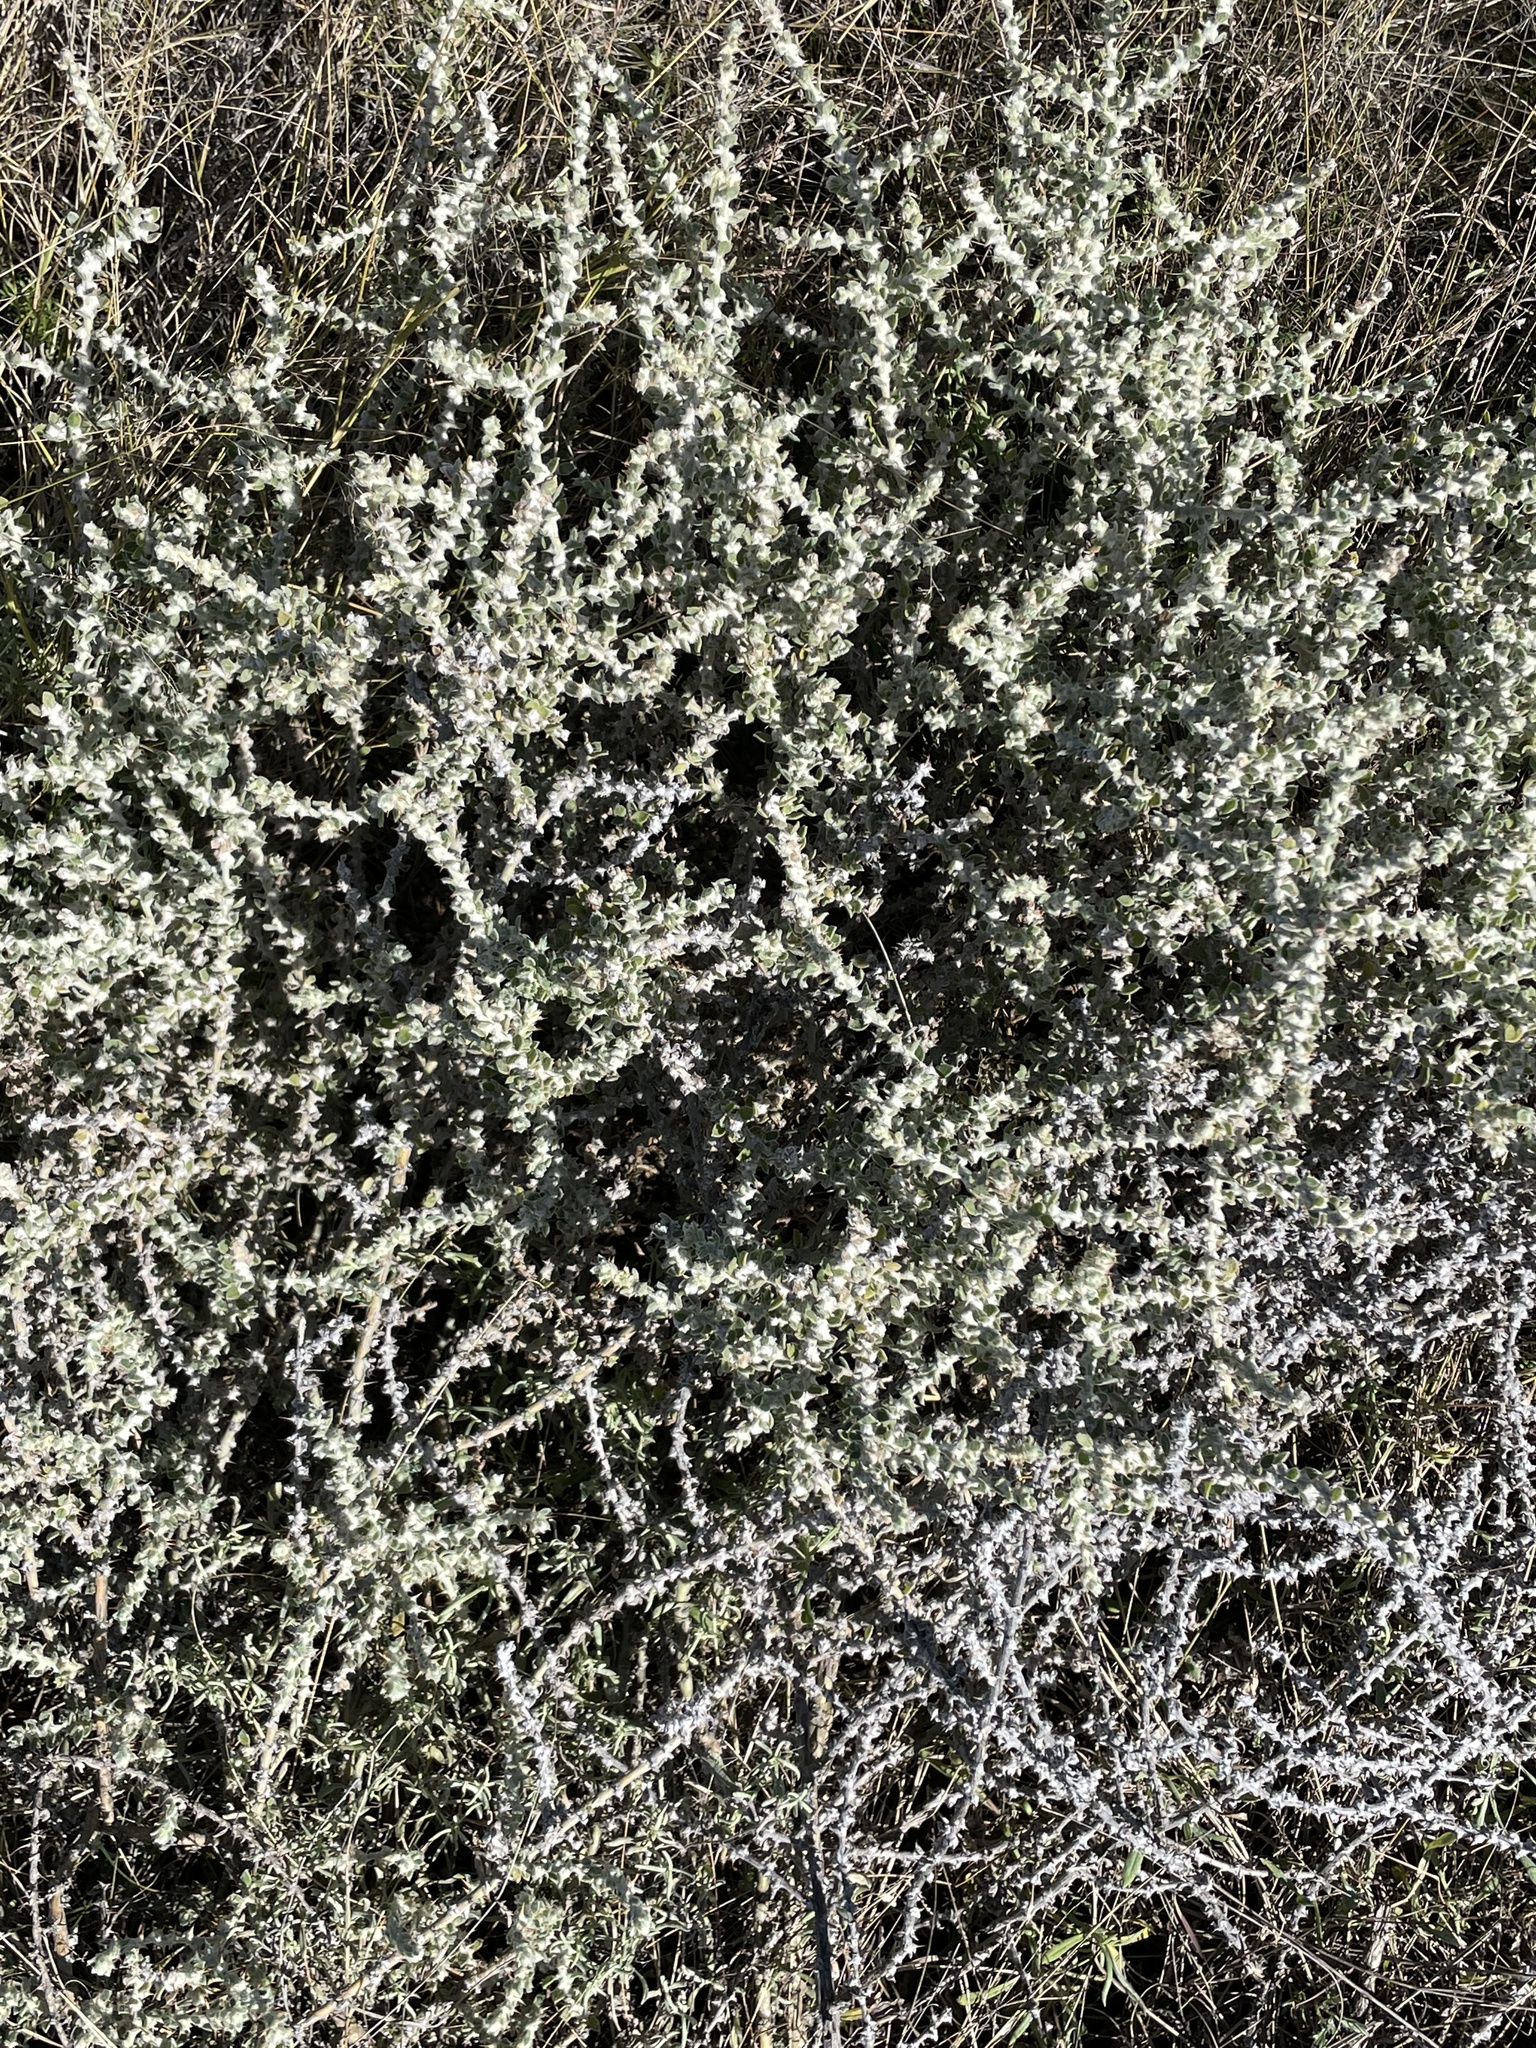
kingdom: Plantae
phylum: Tracheophyta
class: Magnoliopsida
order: Caryophyllales
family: Amaranthaceae
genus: Sclerolaena
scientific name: Sclerolaena birchii
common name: Galvanized bur
